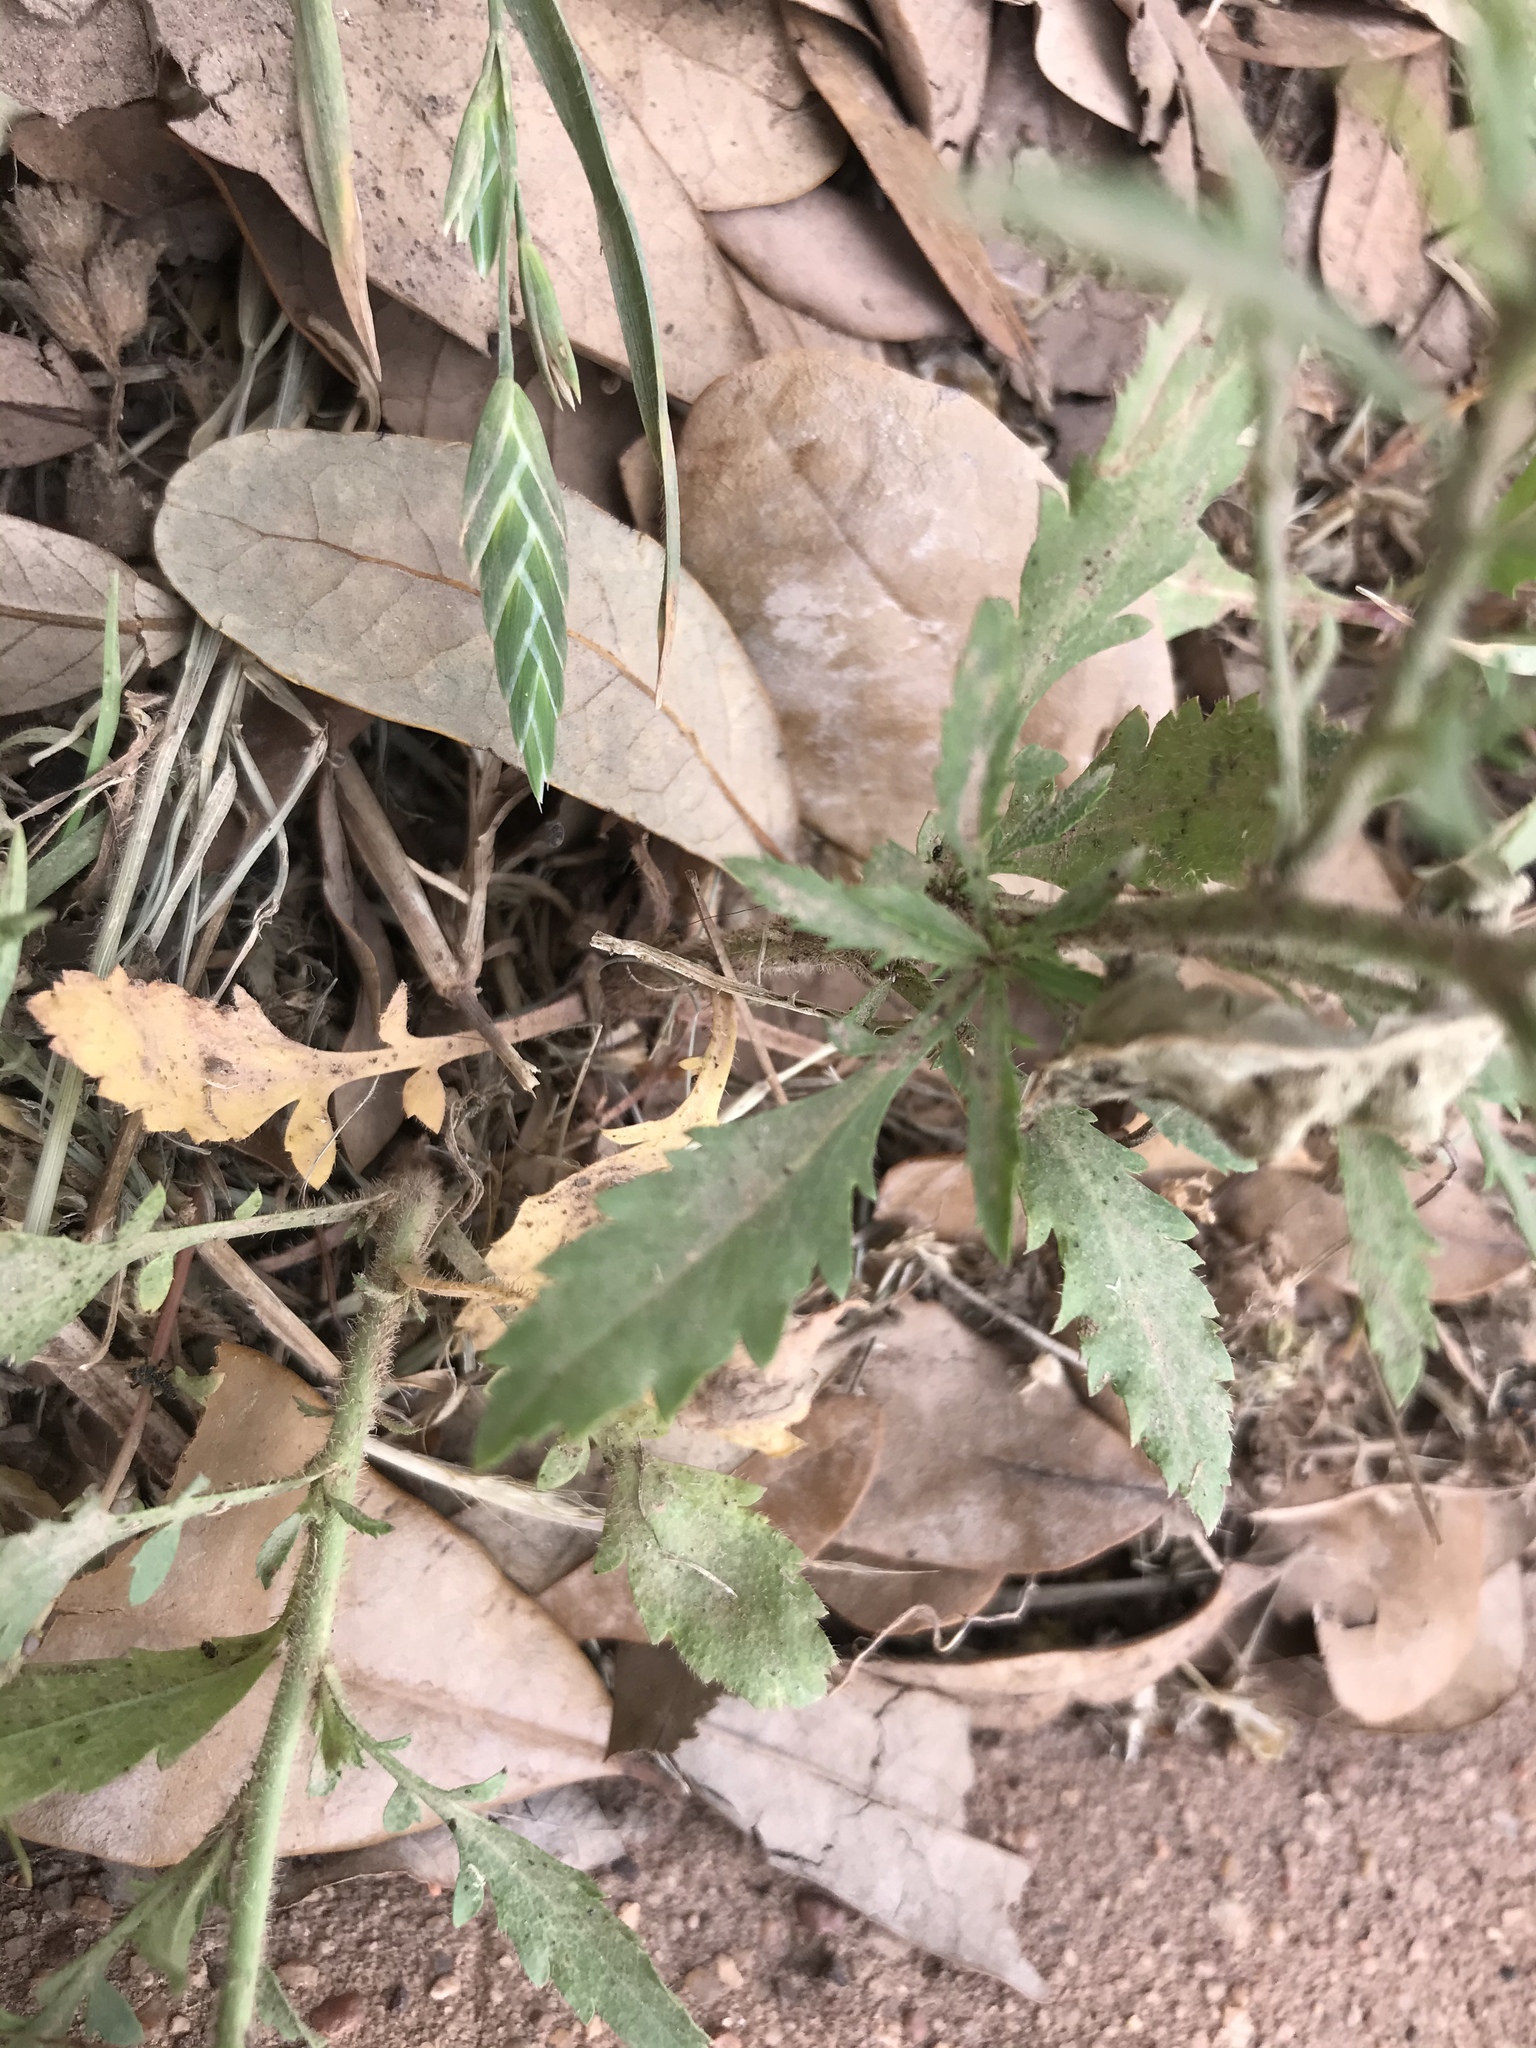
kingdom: Plantae
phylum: Tracheophyta
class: Magnoliopsida
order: Brassicales
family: Brassicaceae
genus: Lepidium
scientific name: Lepidium densiflorum
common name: Miner's pepperwort
